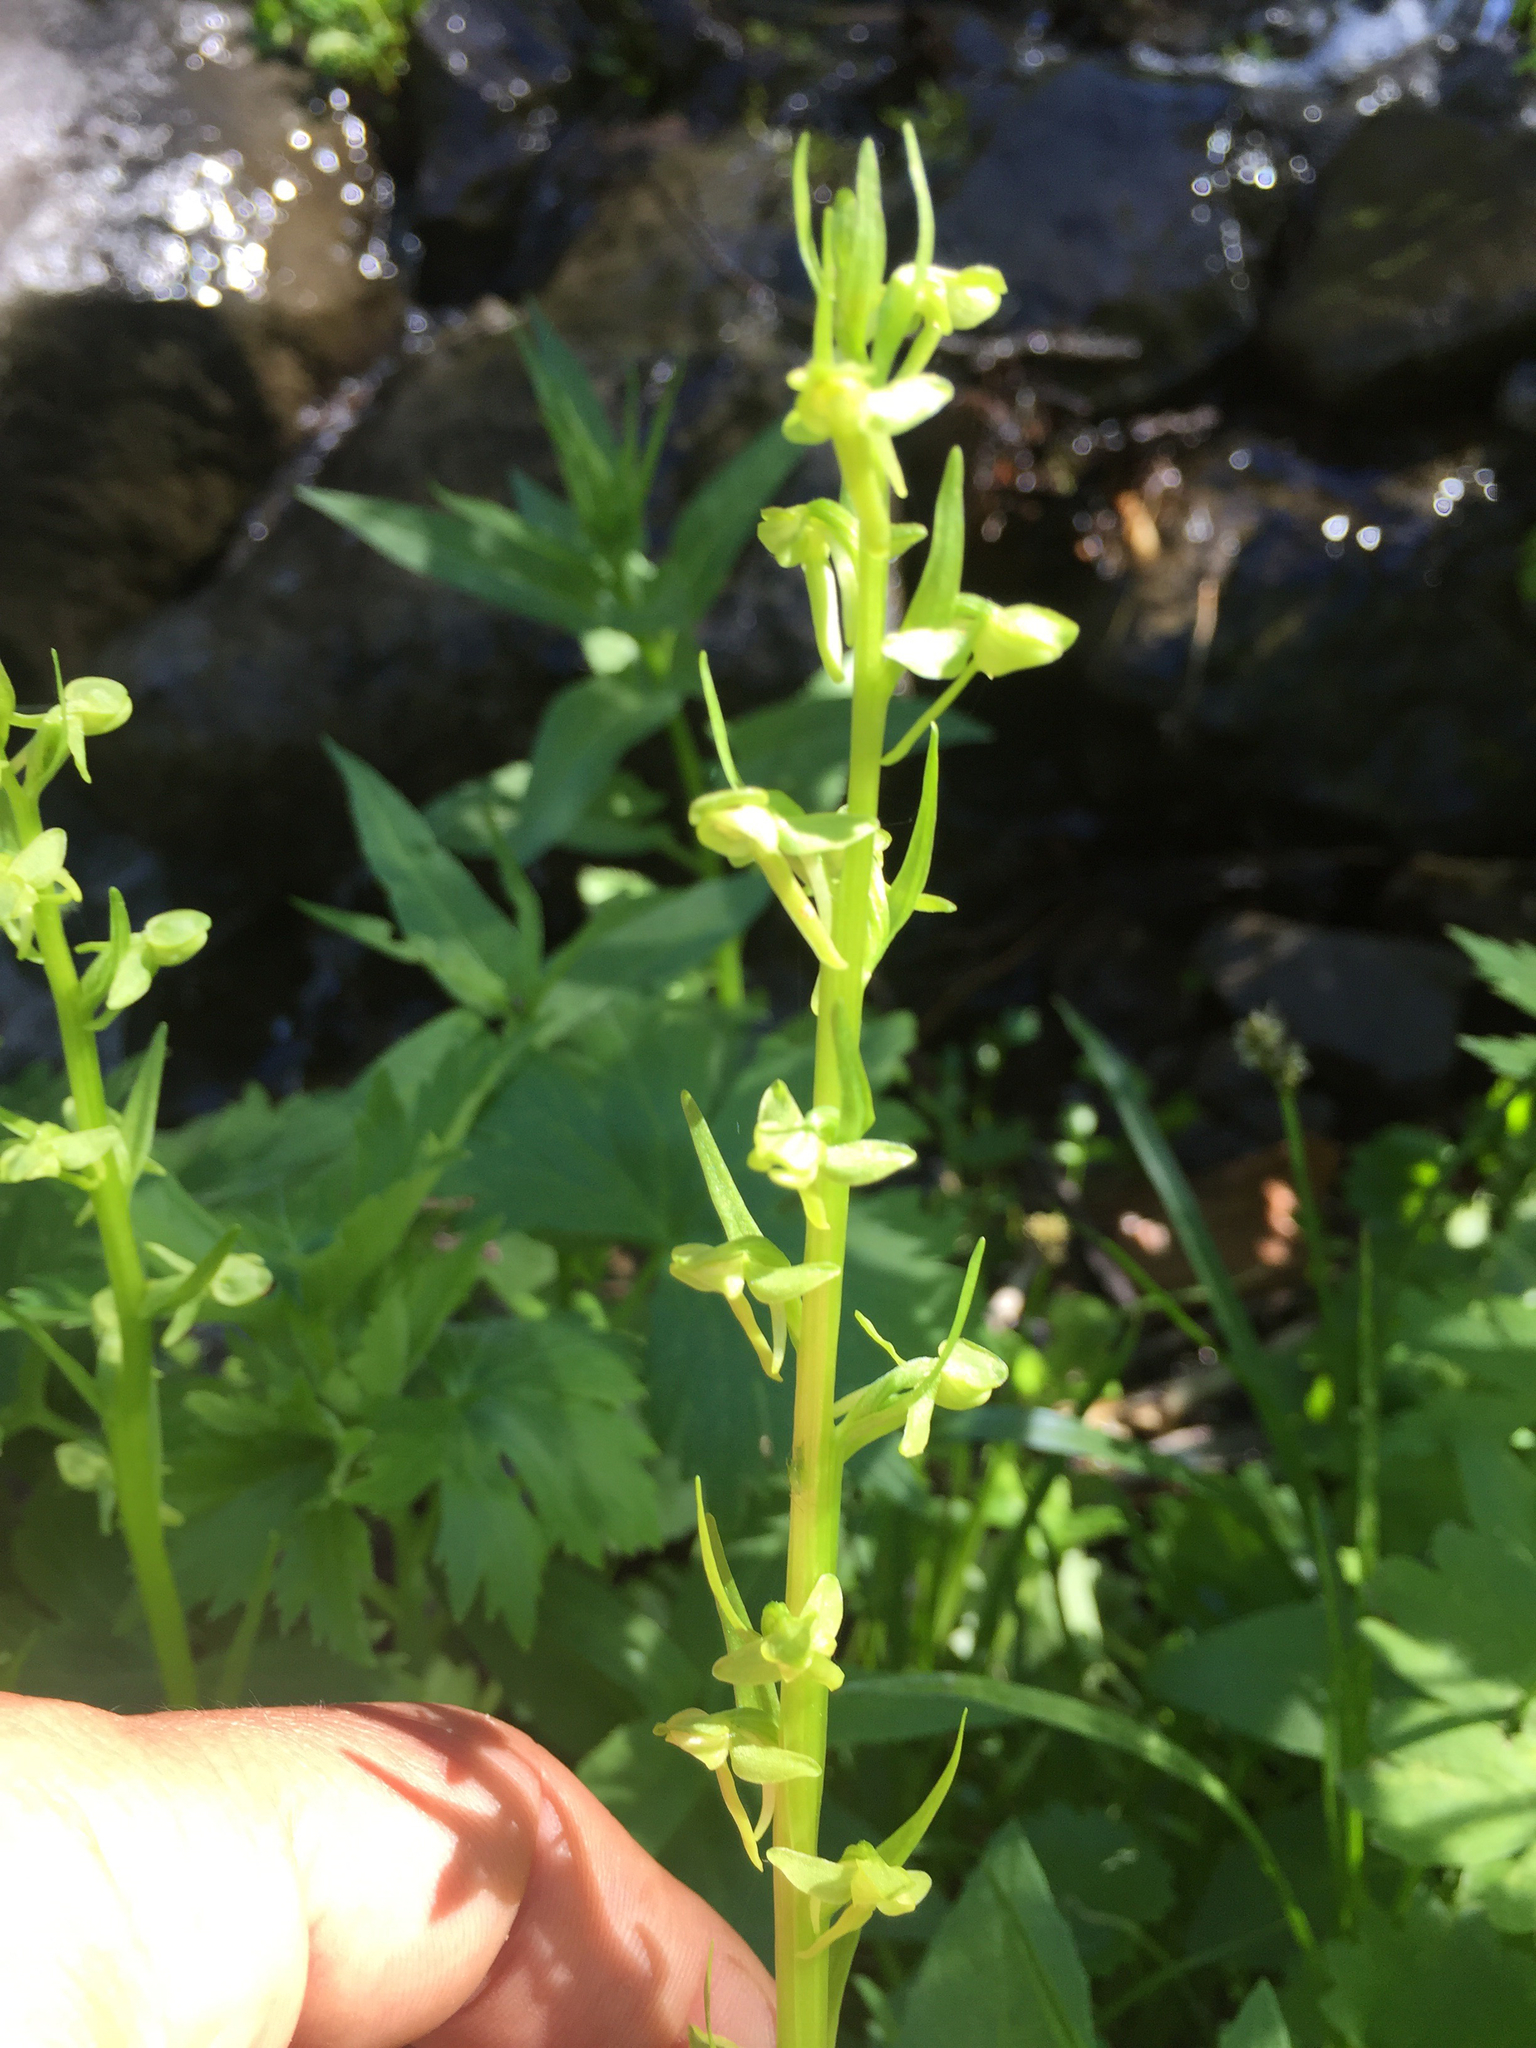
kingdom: Plantae
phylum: Tracheophyta
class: Liliopsida
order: Asparagales
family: Orchidaceae
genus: Platanthera
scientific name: Platanthera sparsiflora
